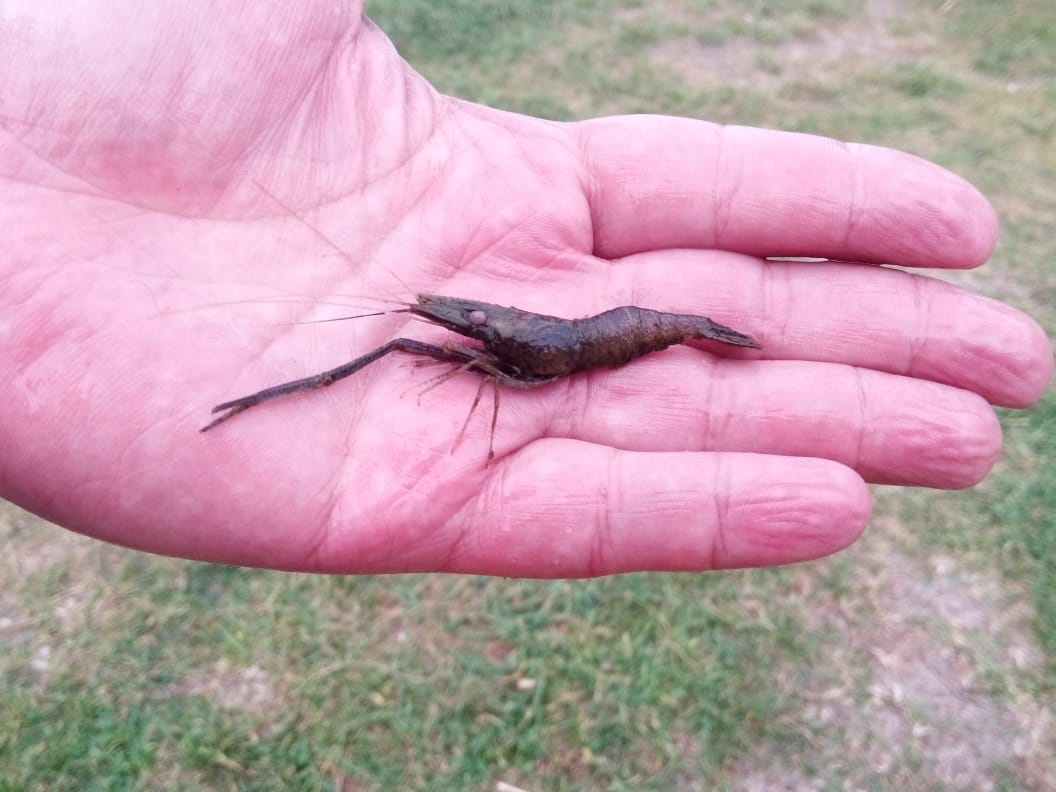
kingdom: Animalia
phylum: Arthropoda
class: Malacostraca
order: Decapoda
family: Palaemonidae
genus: Macrobrachium
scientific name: Macrobrachium nipponense
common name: East asian river prawn
